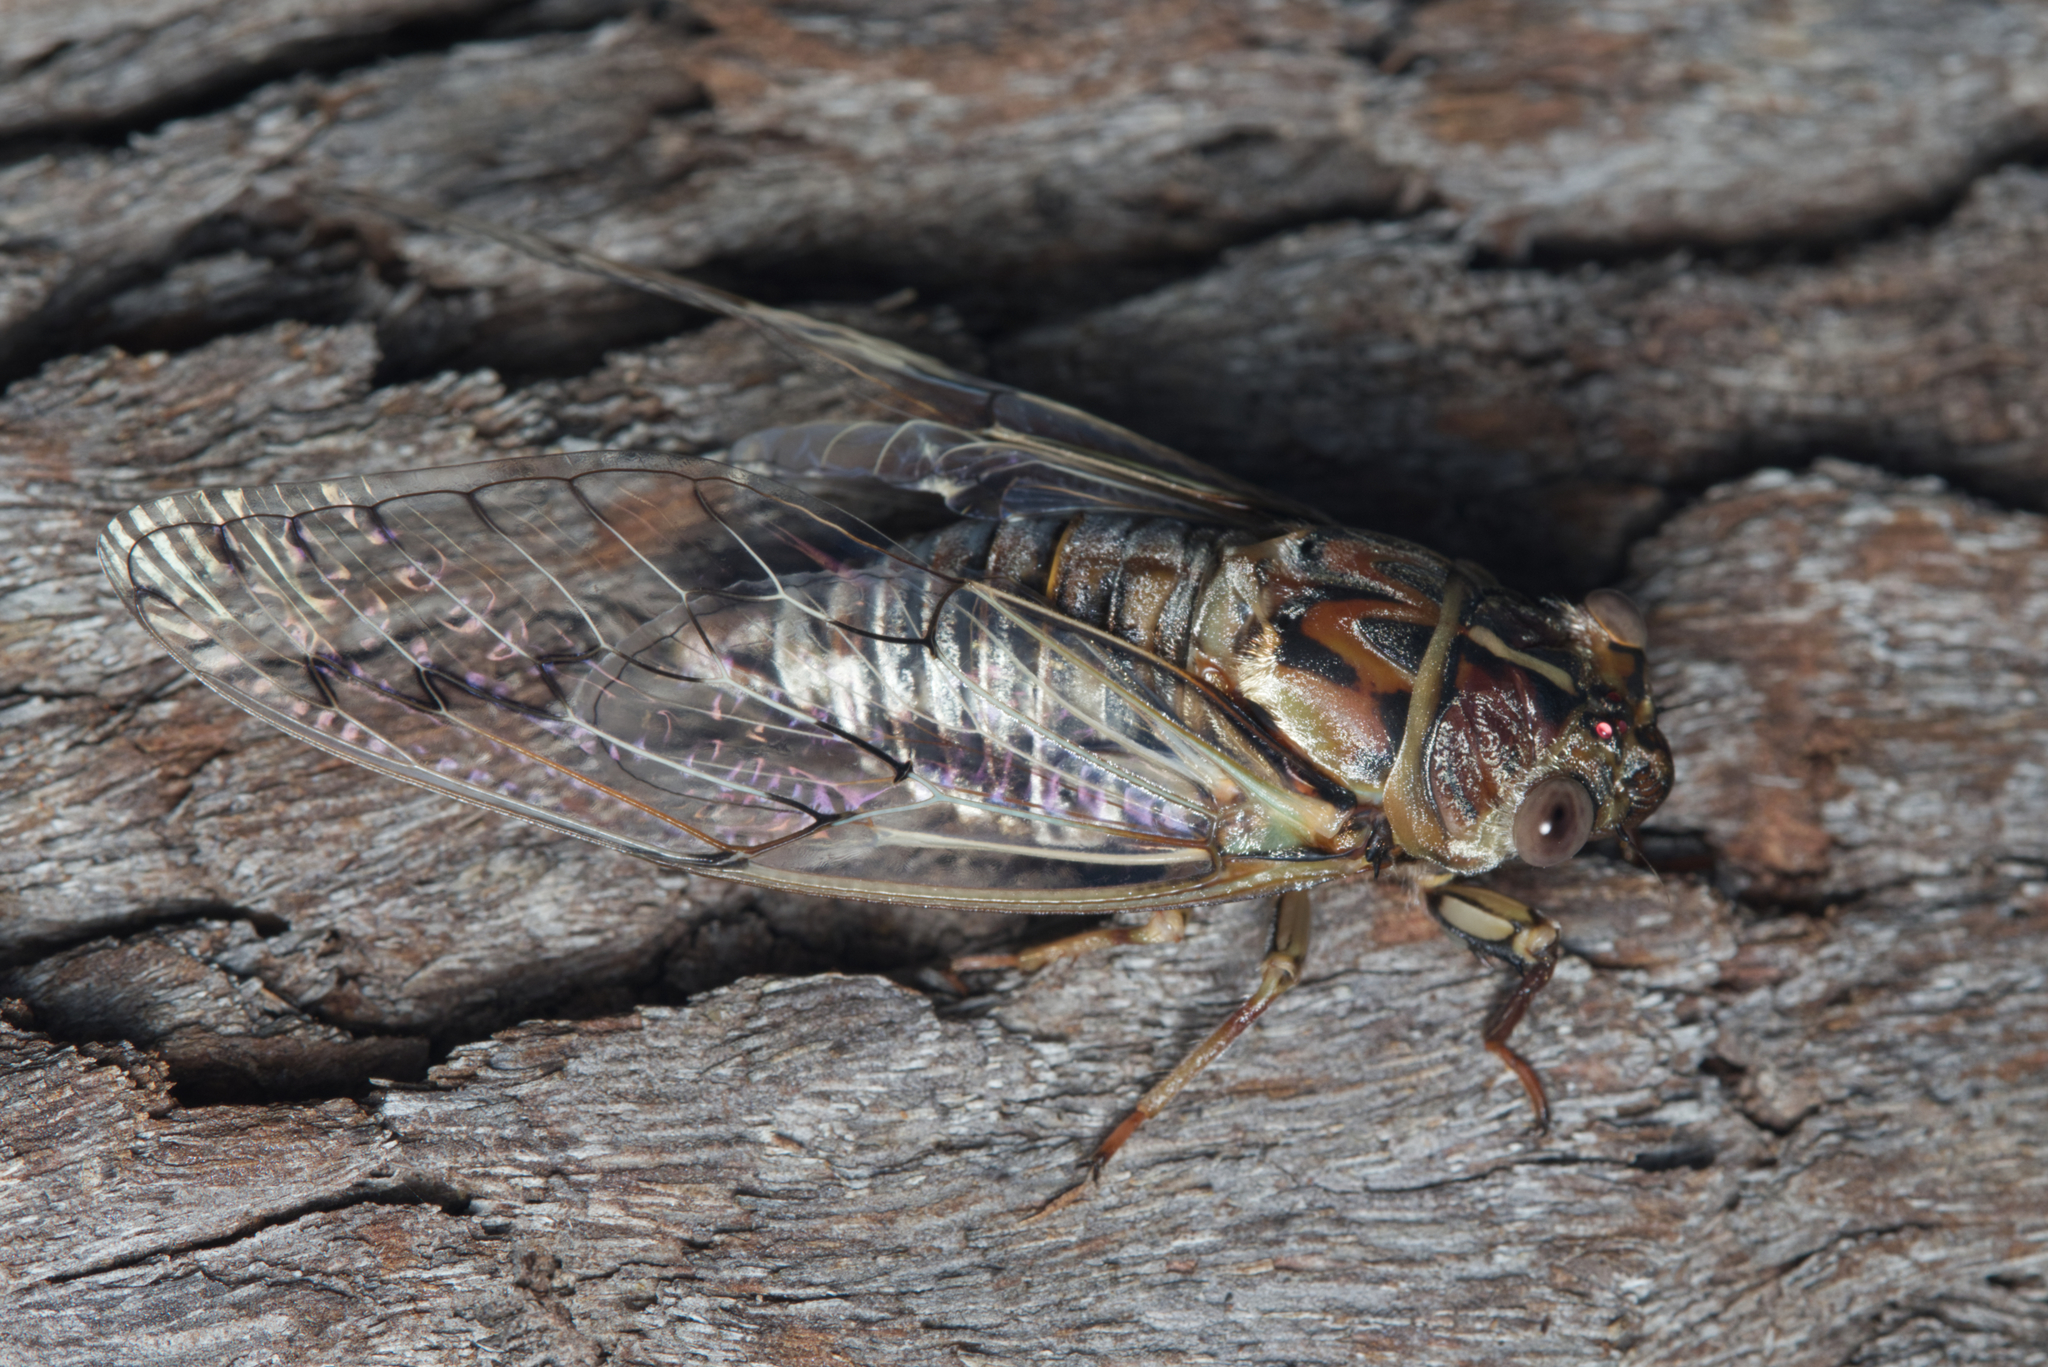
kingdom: Animalia
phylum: Arthropoda
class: Insecta
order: Hemiptera
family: Cicadidae
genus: Henicopsaltria
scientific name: Henicopsaltria eydouxii
